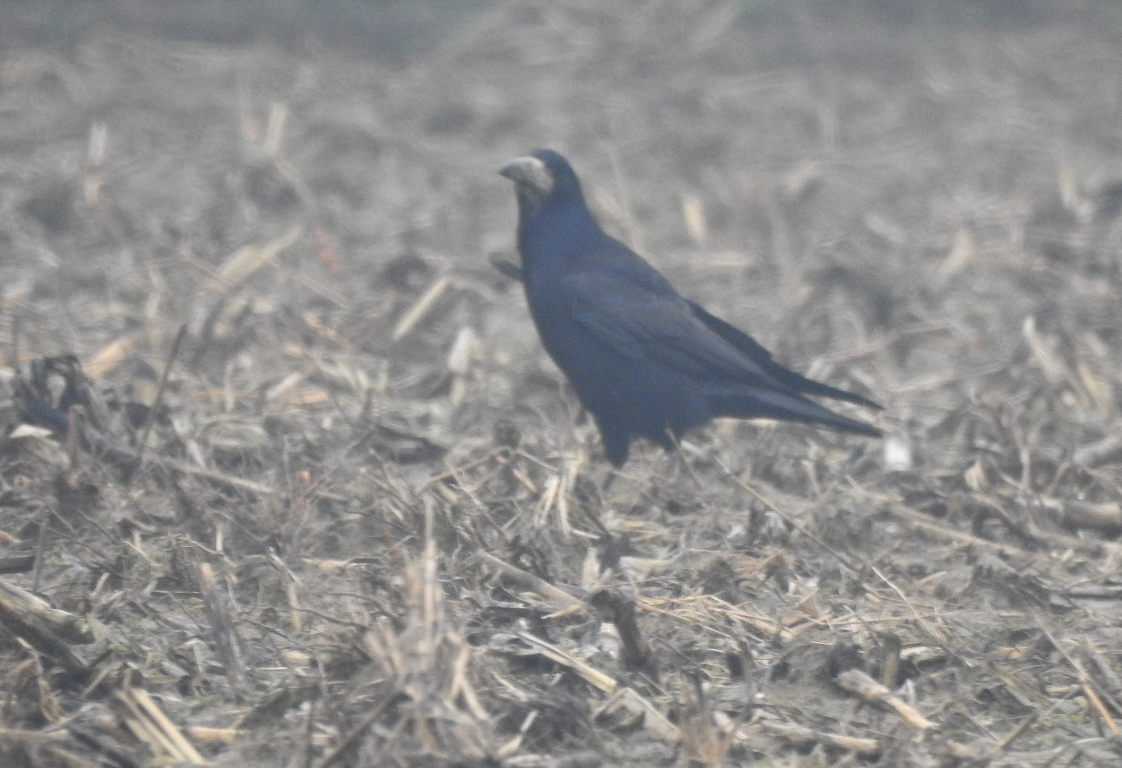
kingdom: Animalia
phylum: Chordata
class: Aves
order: Passeriformes
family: Corvidae
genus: Corvus
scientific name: Corvus frugilegus
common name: Rook
